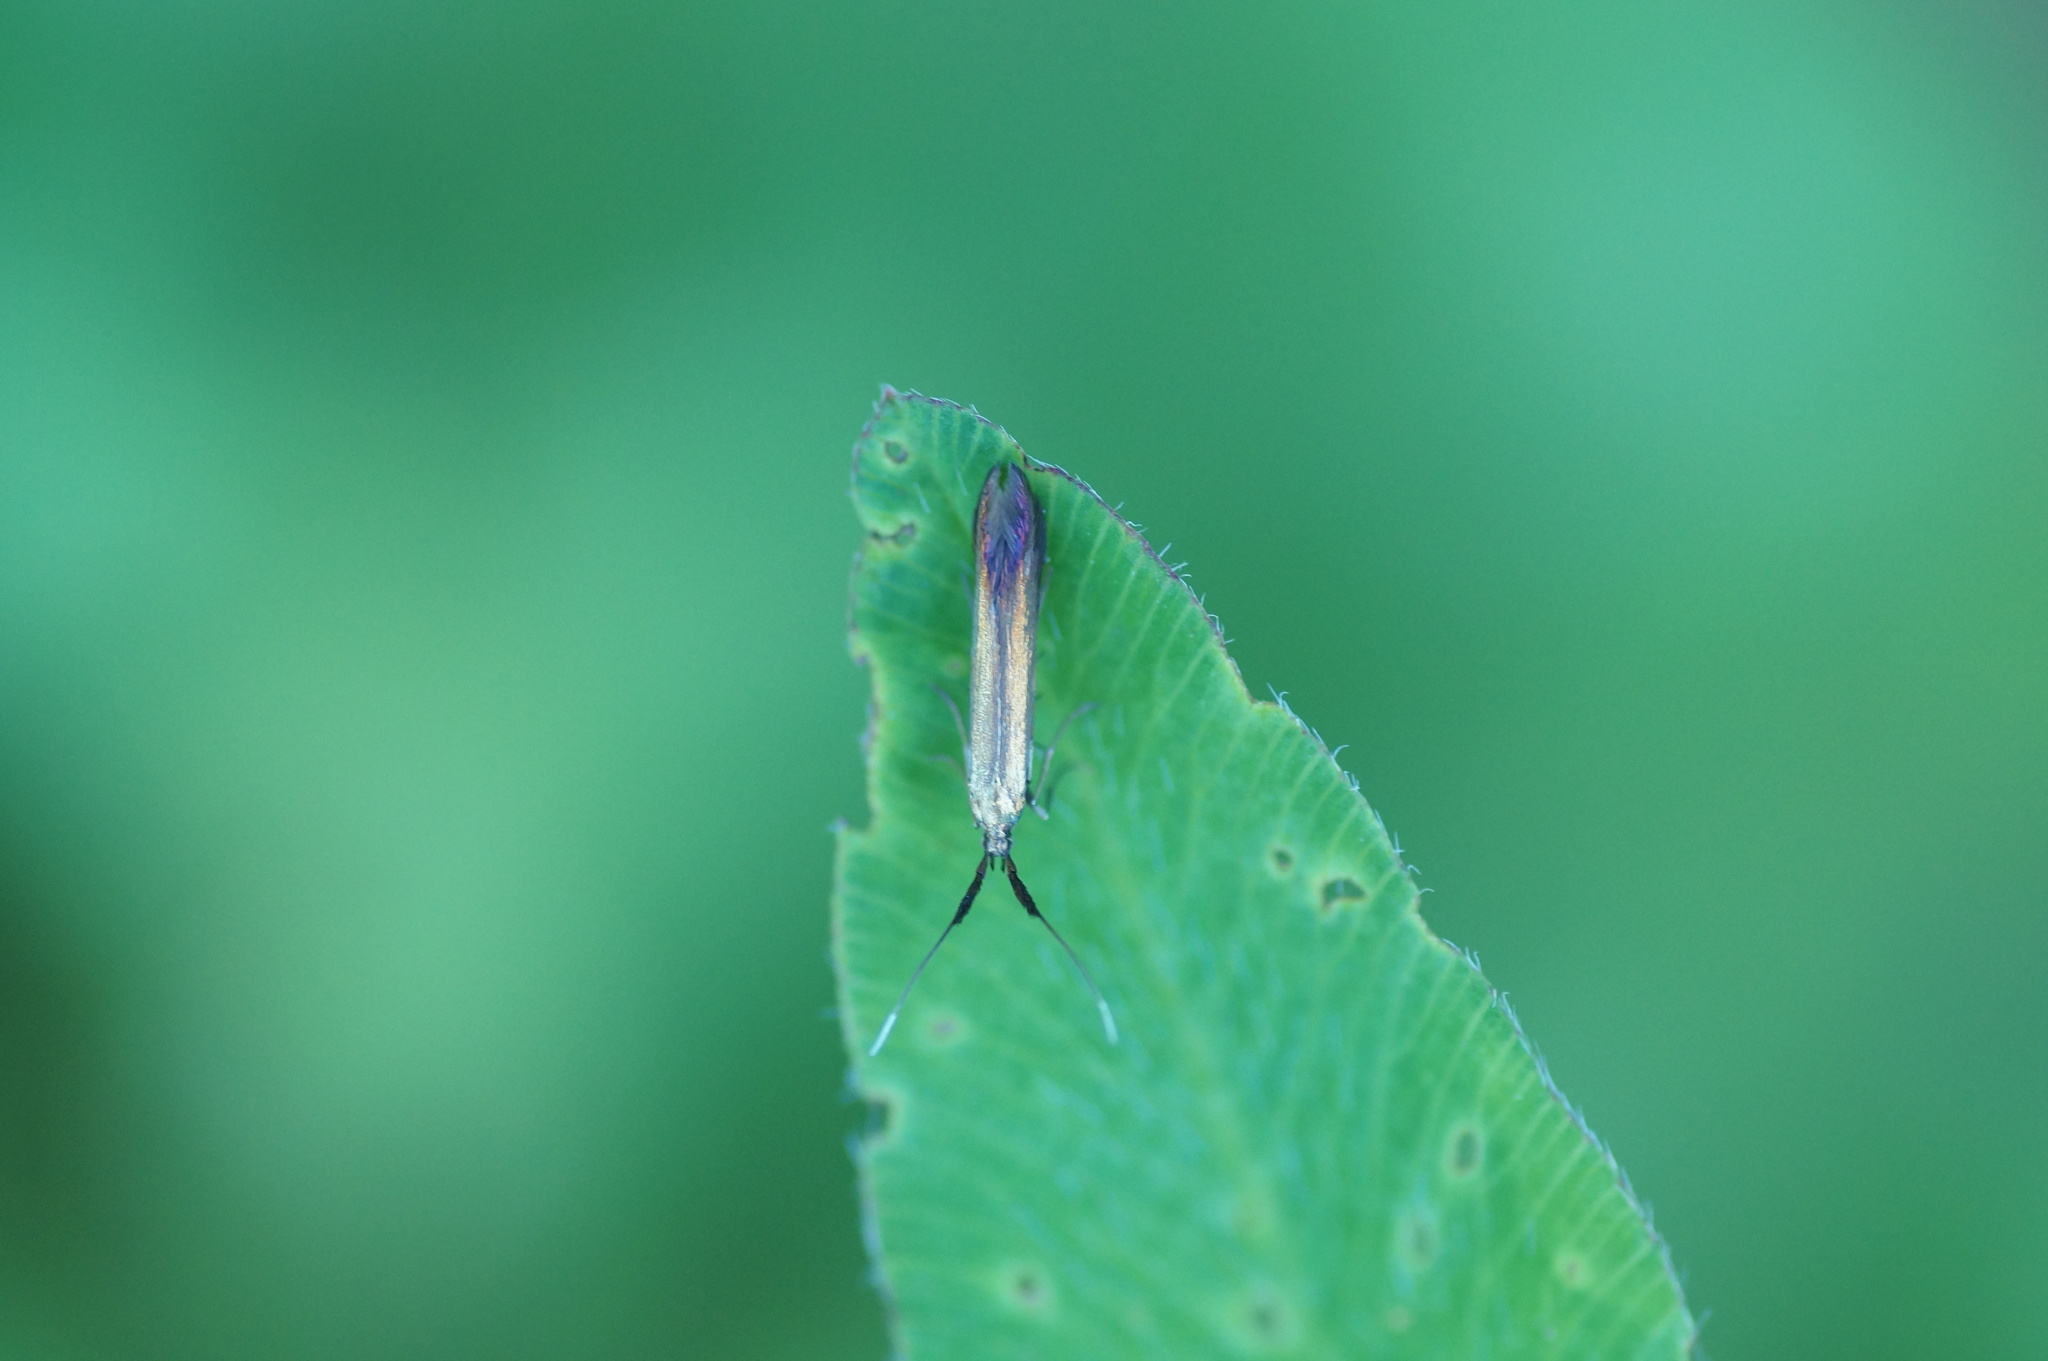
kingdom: Animalia
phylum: Arthropoda
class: Insecta
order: Lepidoptera
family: Coleophoridae
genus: Coleophora
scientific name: Coleophora deauratella
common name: Red-clover case-bearer
